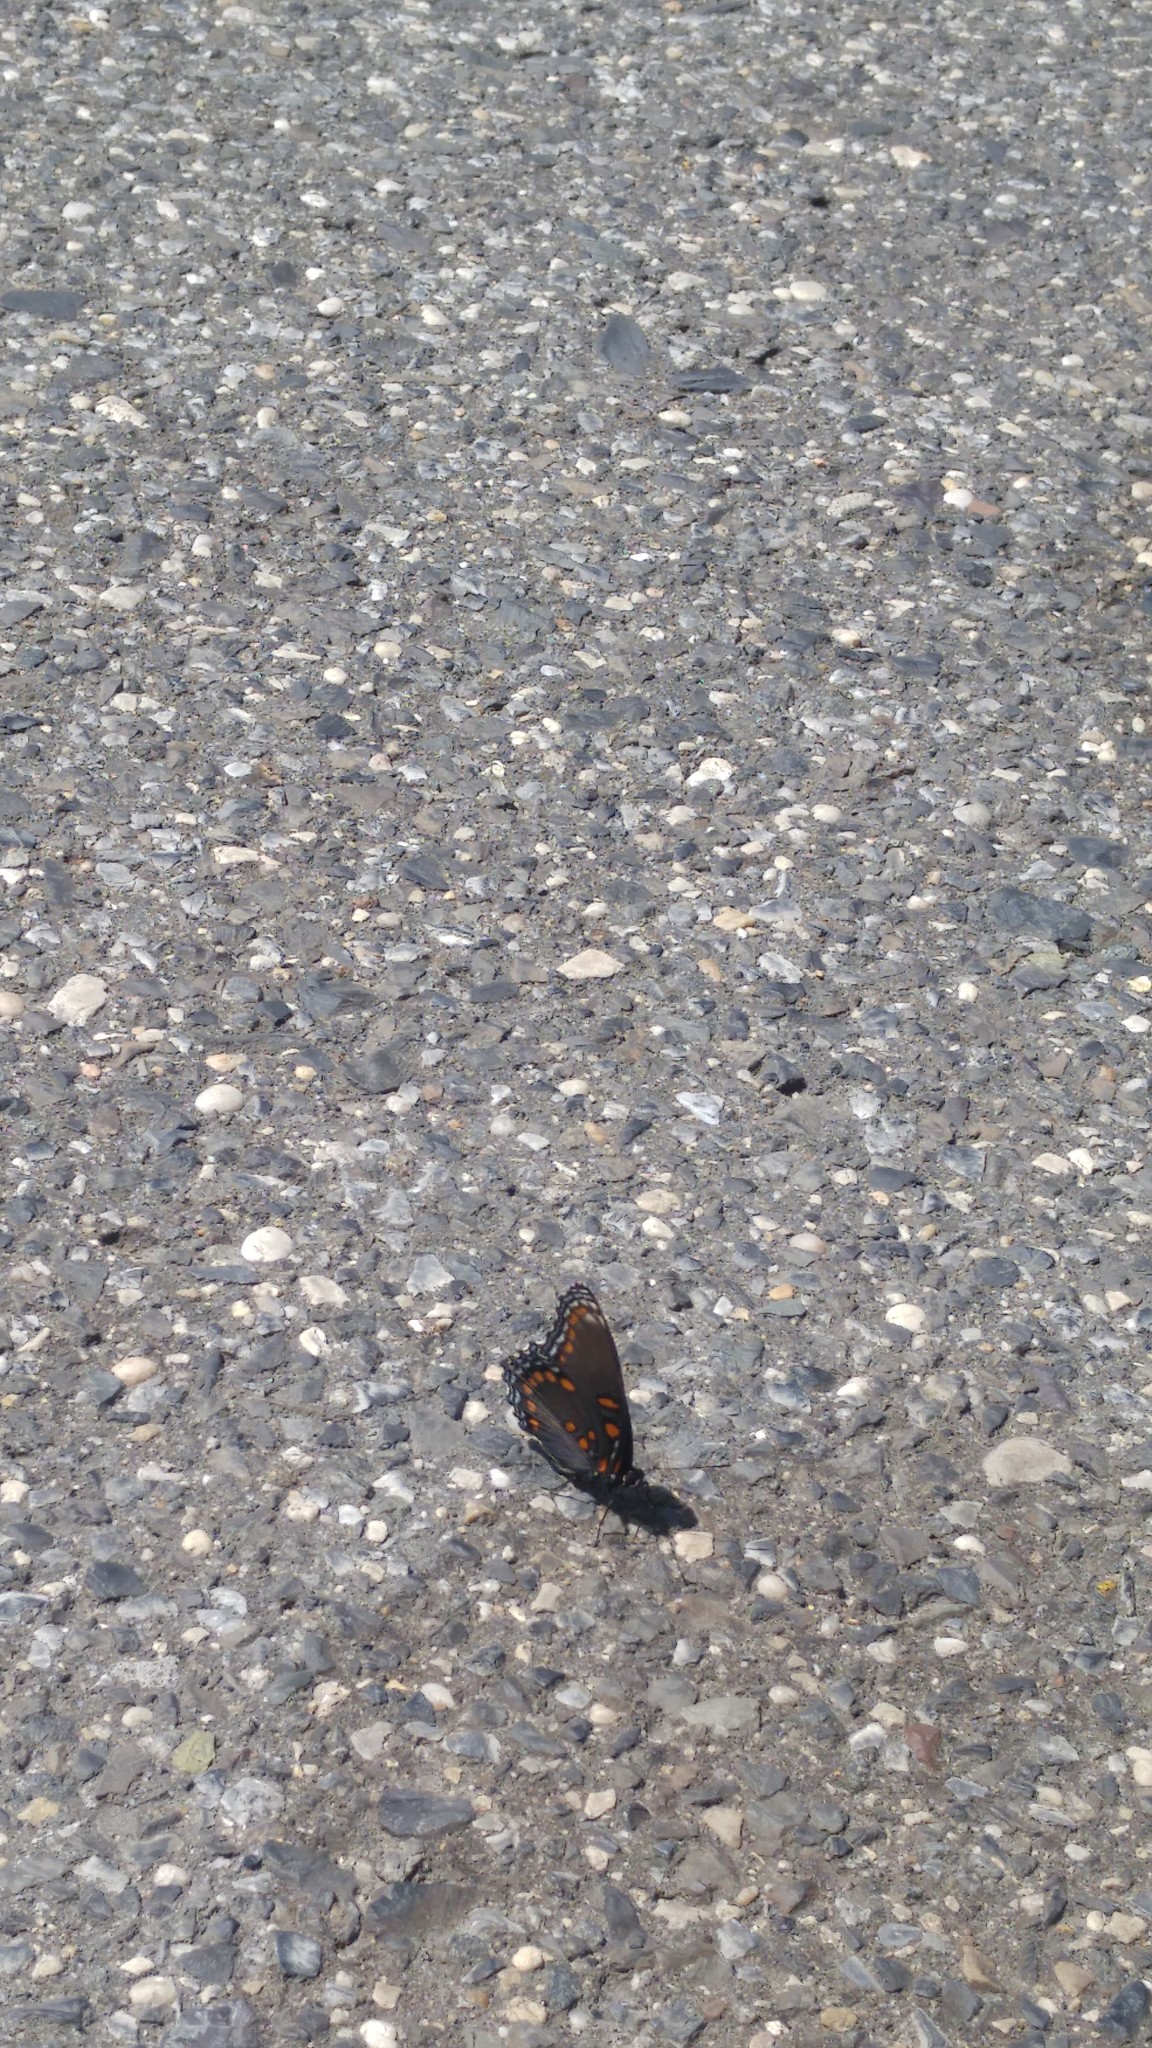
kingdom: Animalia
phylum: Arthropoda
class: Insecta
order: Lepidoptera
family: Nymphalidae
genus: Limenitis
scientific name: Limenitis astyanax
